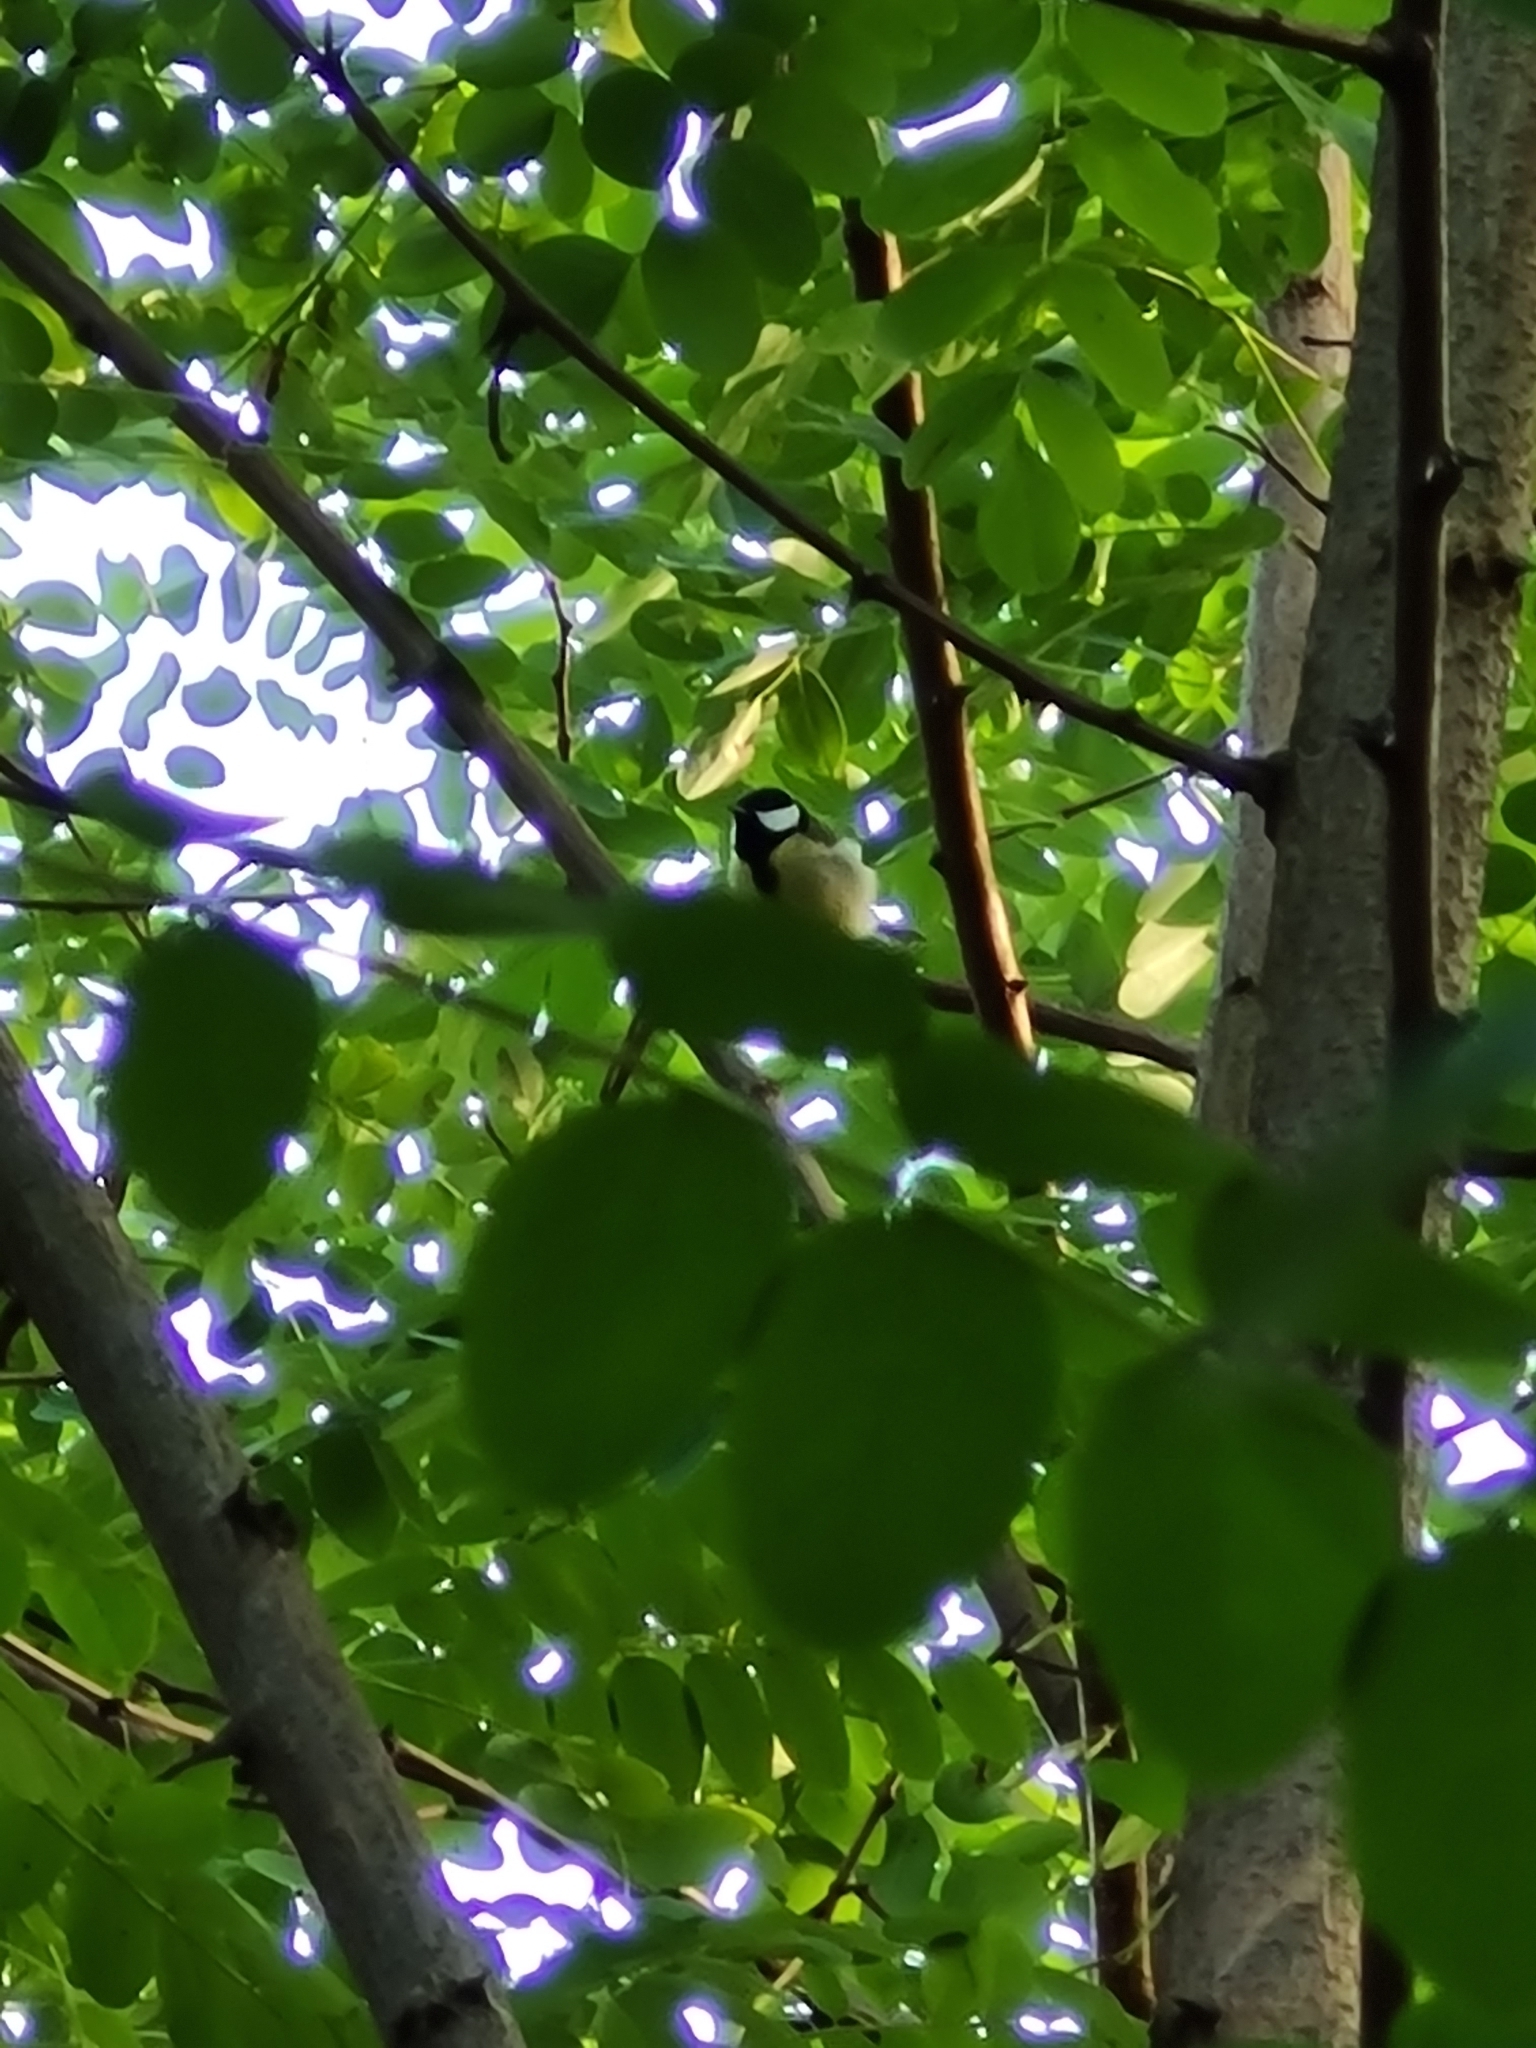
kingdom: Animalia
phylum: Chordata
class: Aves
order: Passeriformes
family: Paridae
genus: Parus
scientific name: Parus major
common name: Great tit
